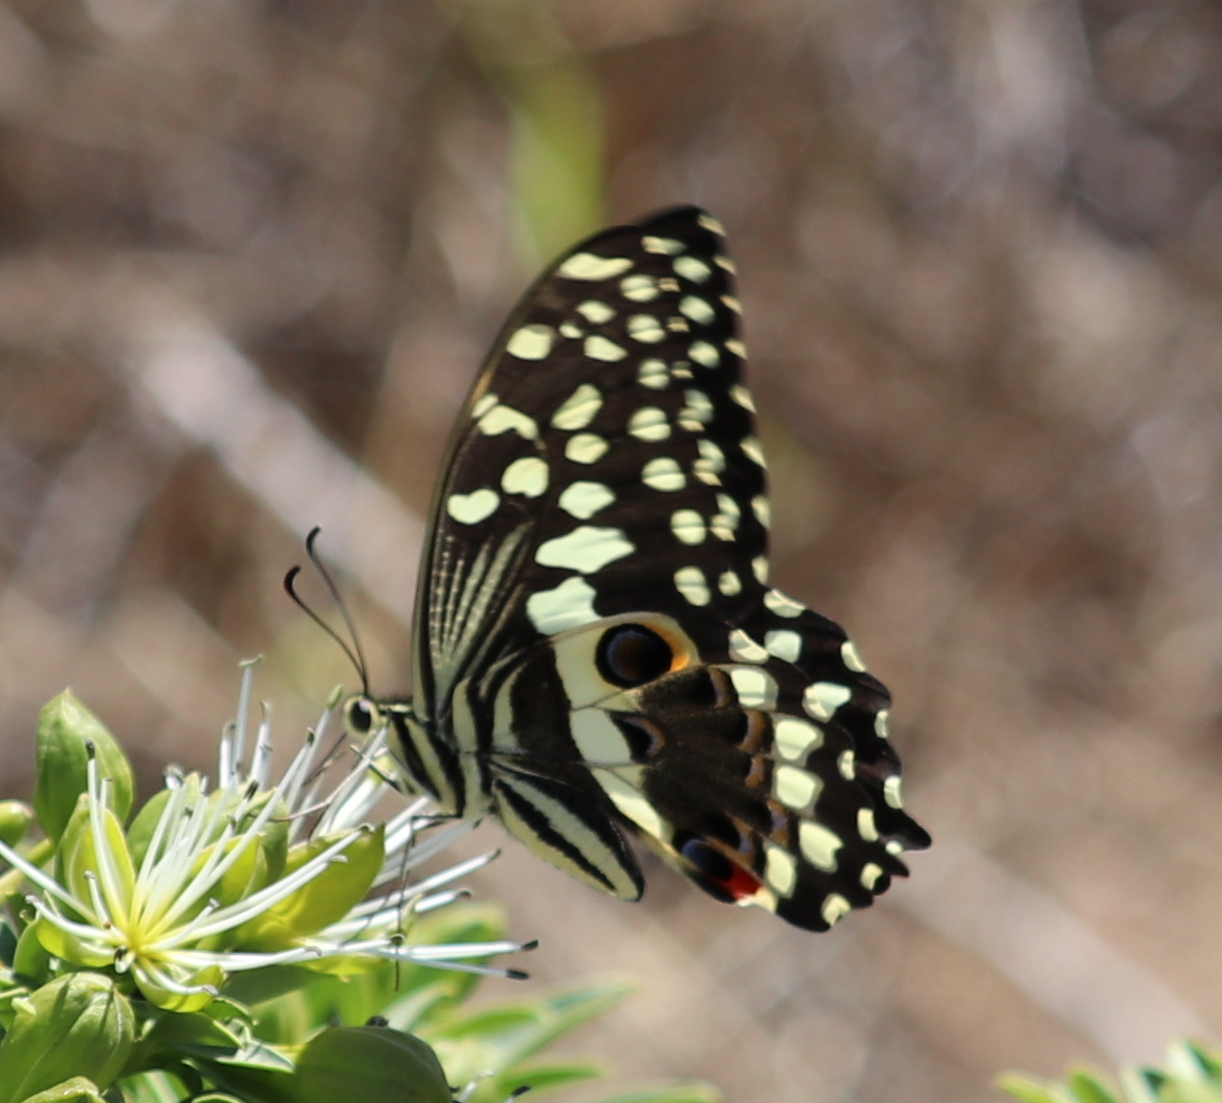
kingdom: Animalia
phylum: Arthropoda
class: Insecta
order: Lepidoptera
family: Papilionidae
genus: Papilio
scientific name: Papilio demodocus
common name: Christmas butterfly
